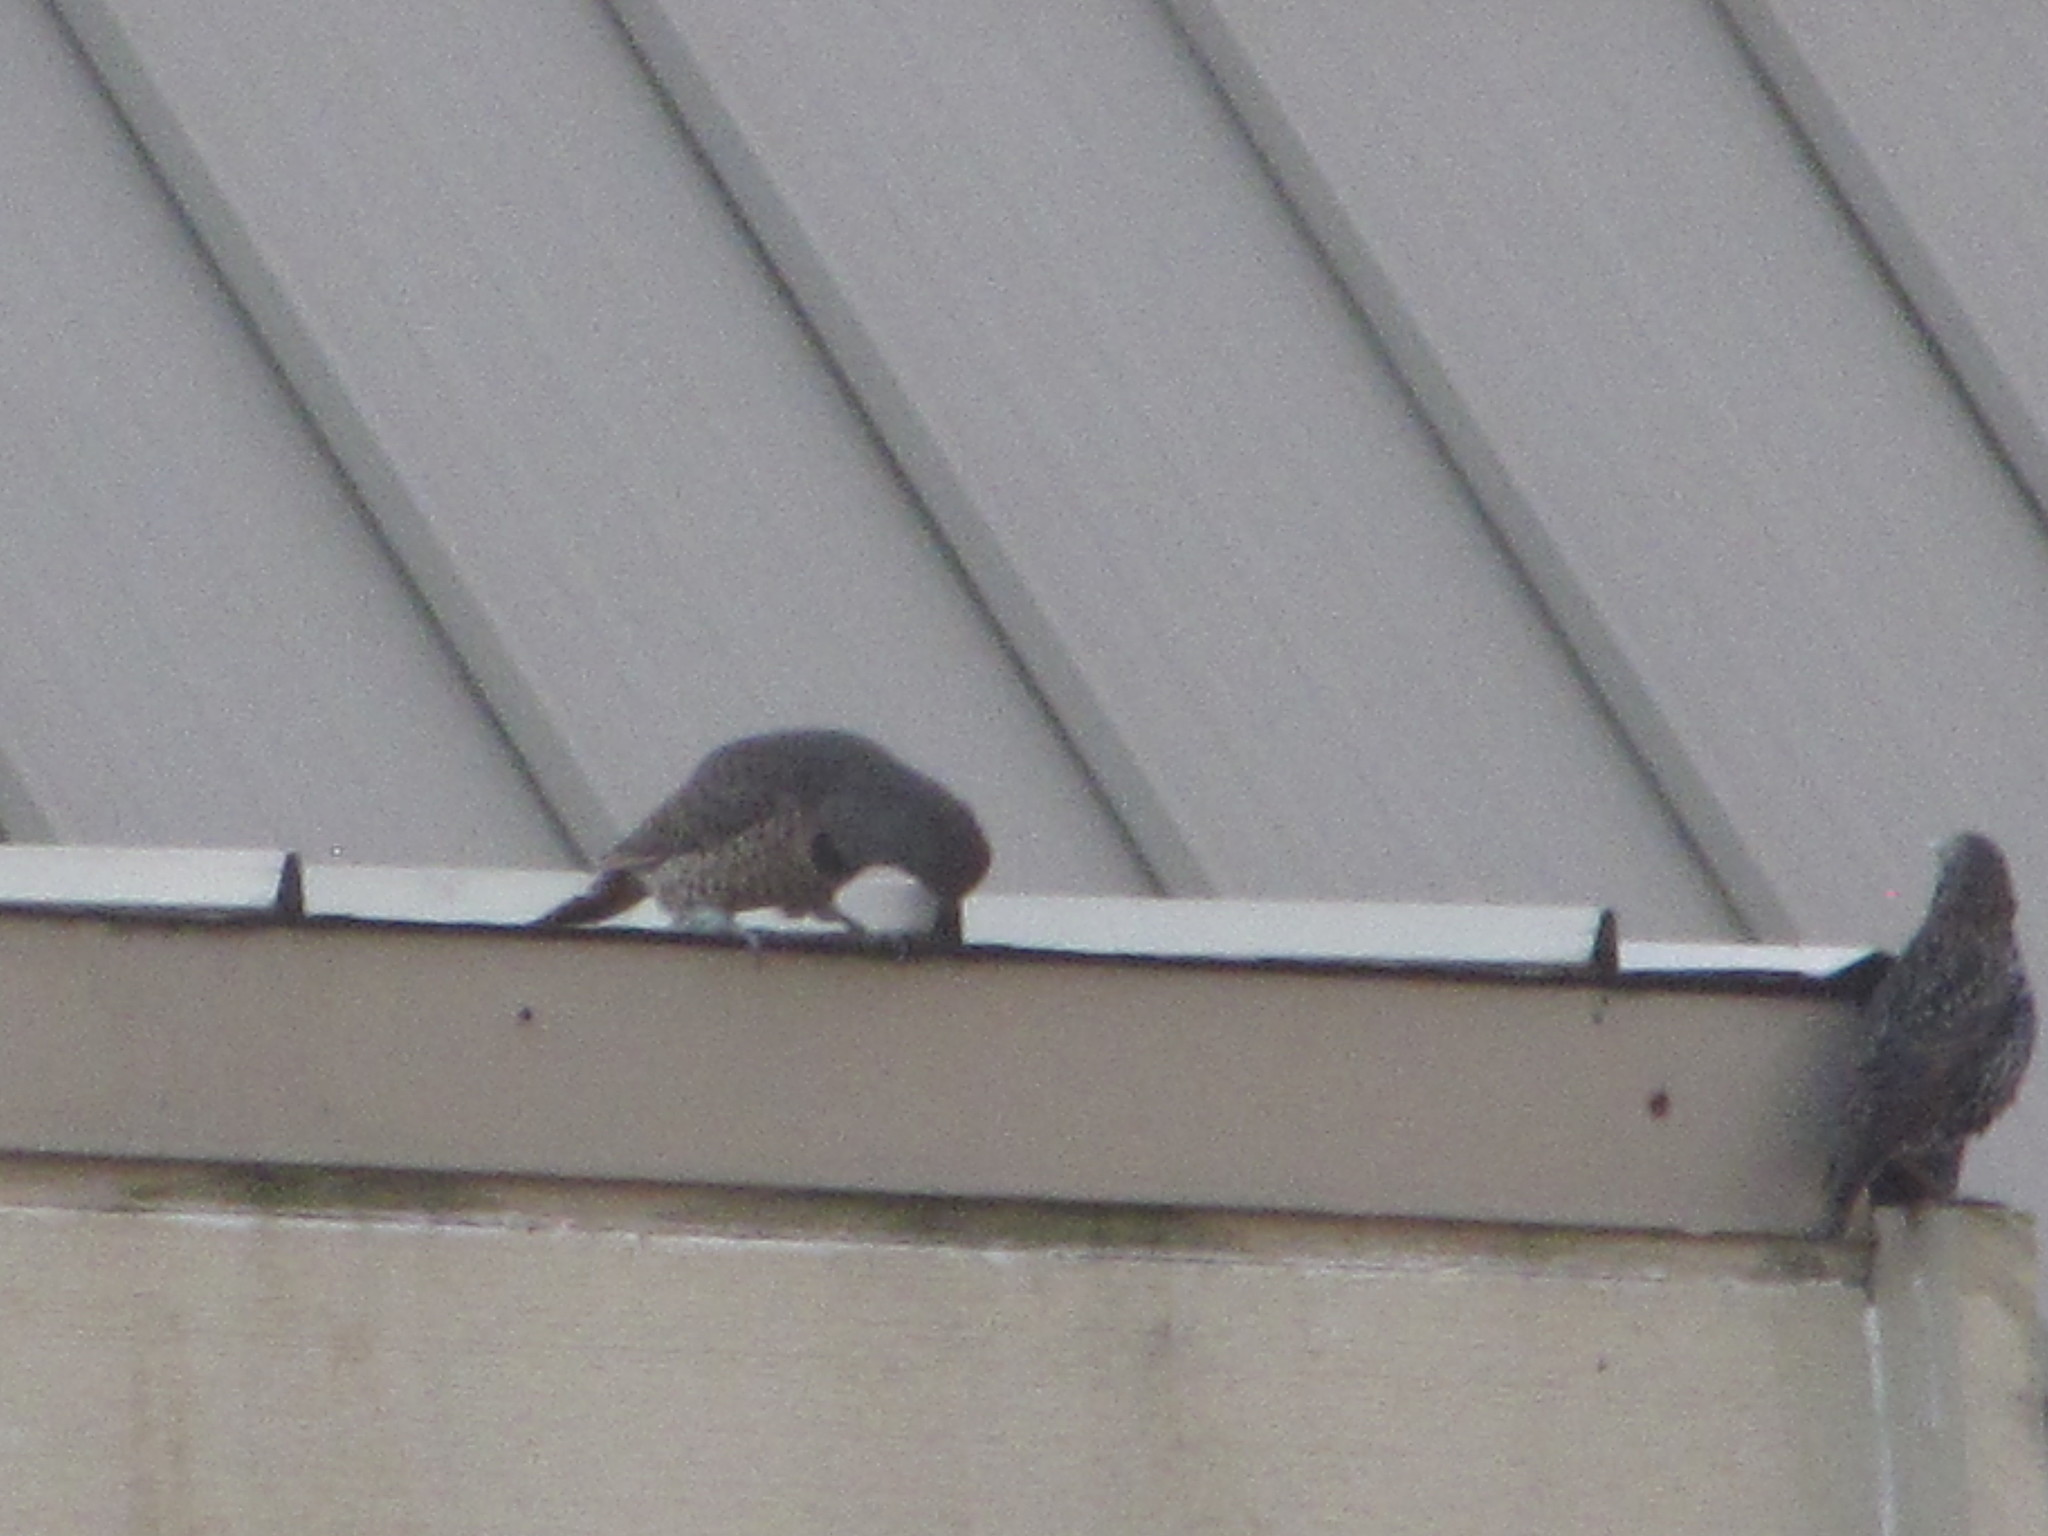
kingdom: Animalia
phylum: Chordata
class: Aves
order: Passeriformes
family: Sturnidae
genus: Sturnus
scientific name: Sturnus vulgaris
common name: Common starling
